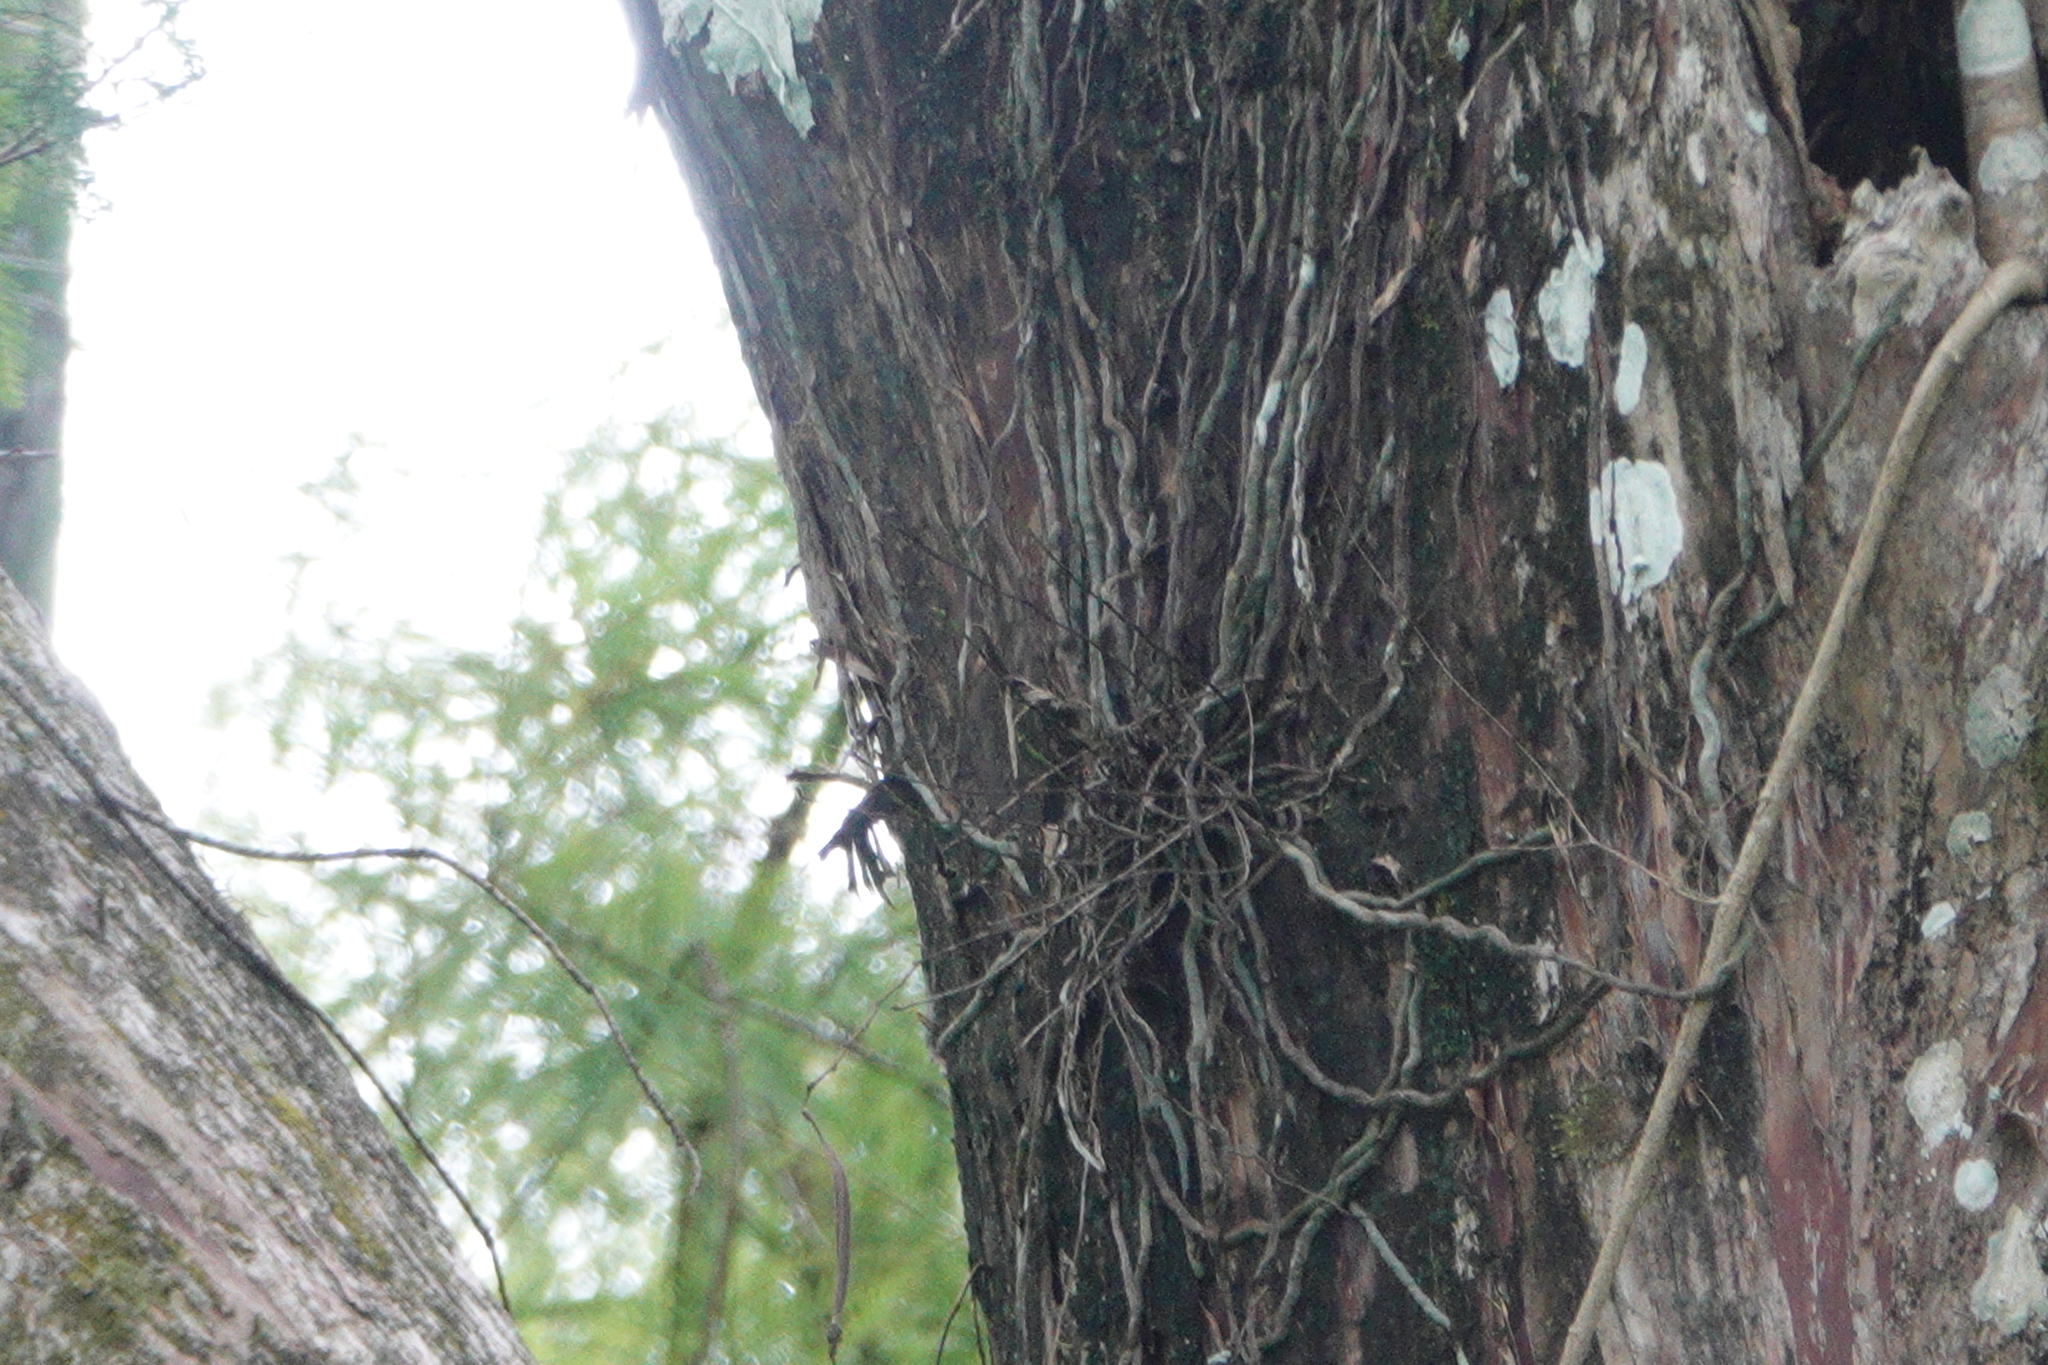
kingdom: Plantae
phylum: Tracheophyta
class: Liliopsida
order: Asparagales
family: Orchidaceae
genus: Dendrophylax
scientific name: Dendrophylax lindenii
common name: Palmpolly
